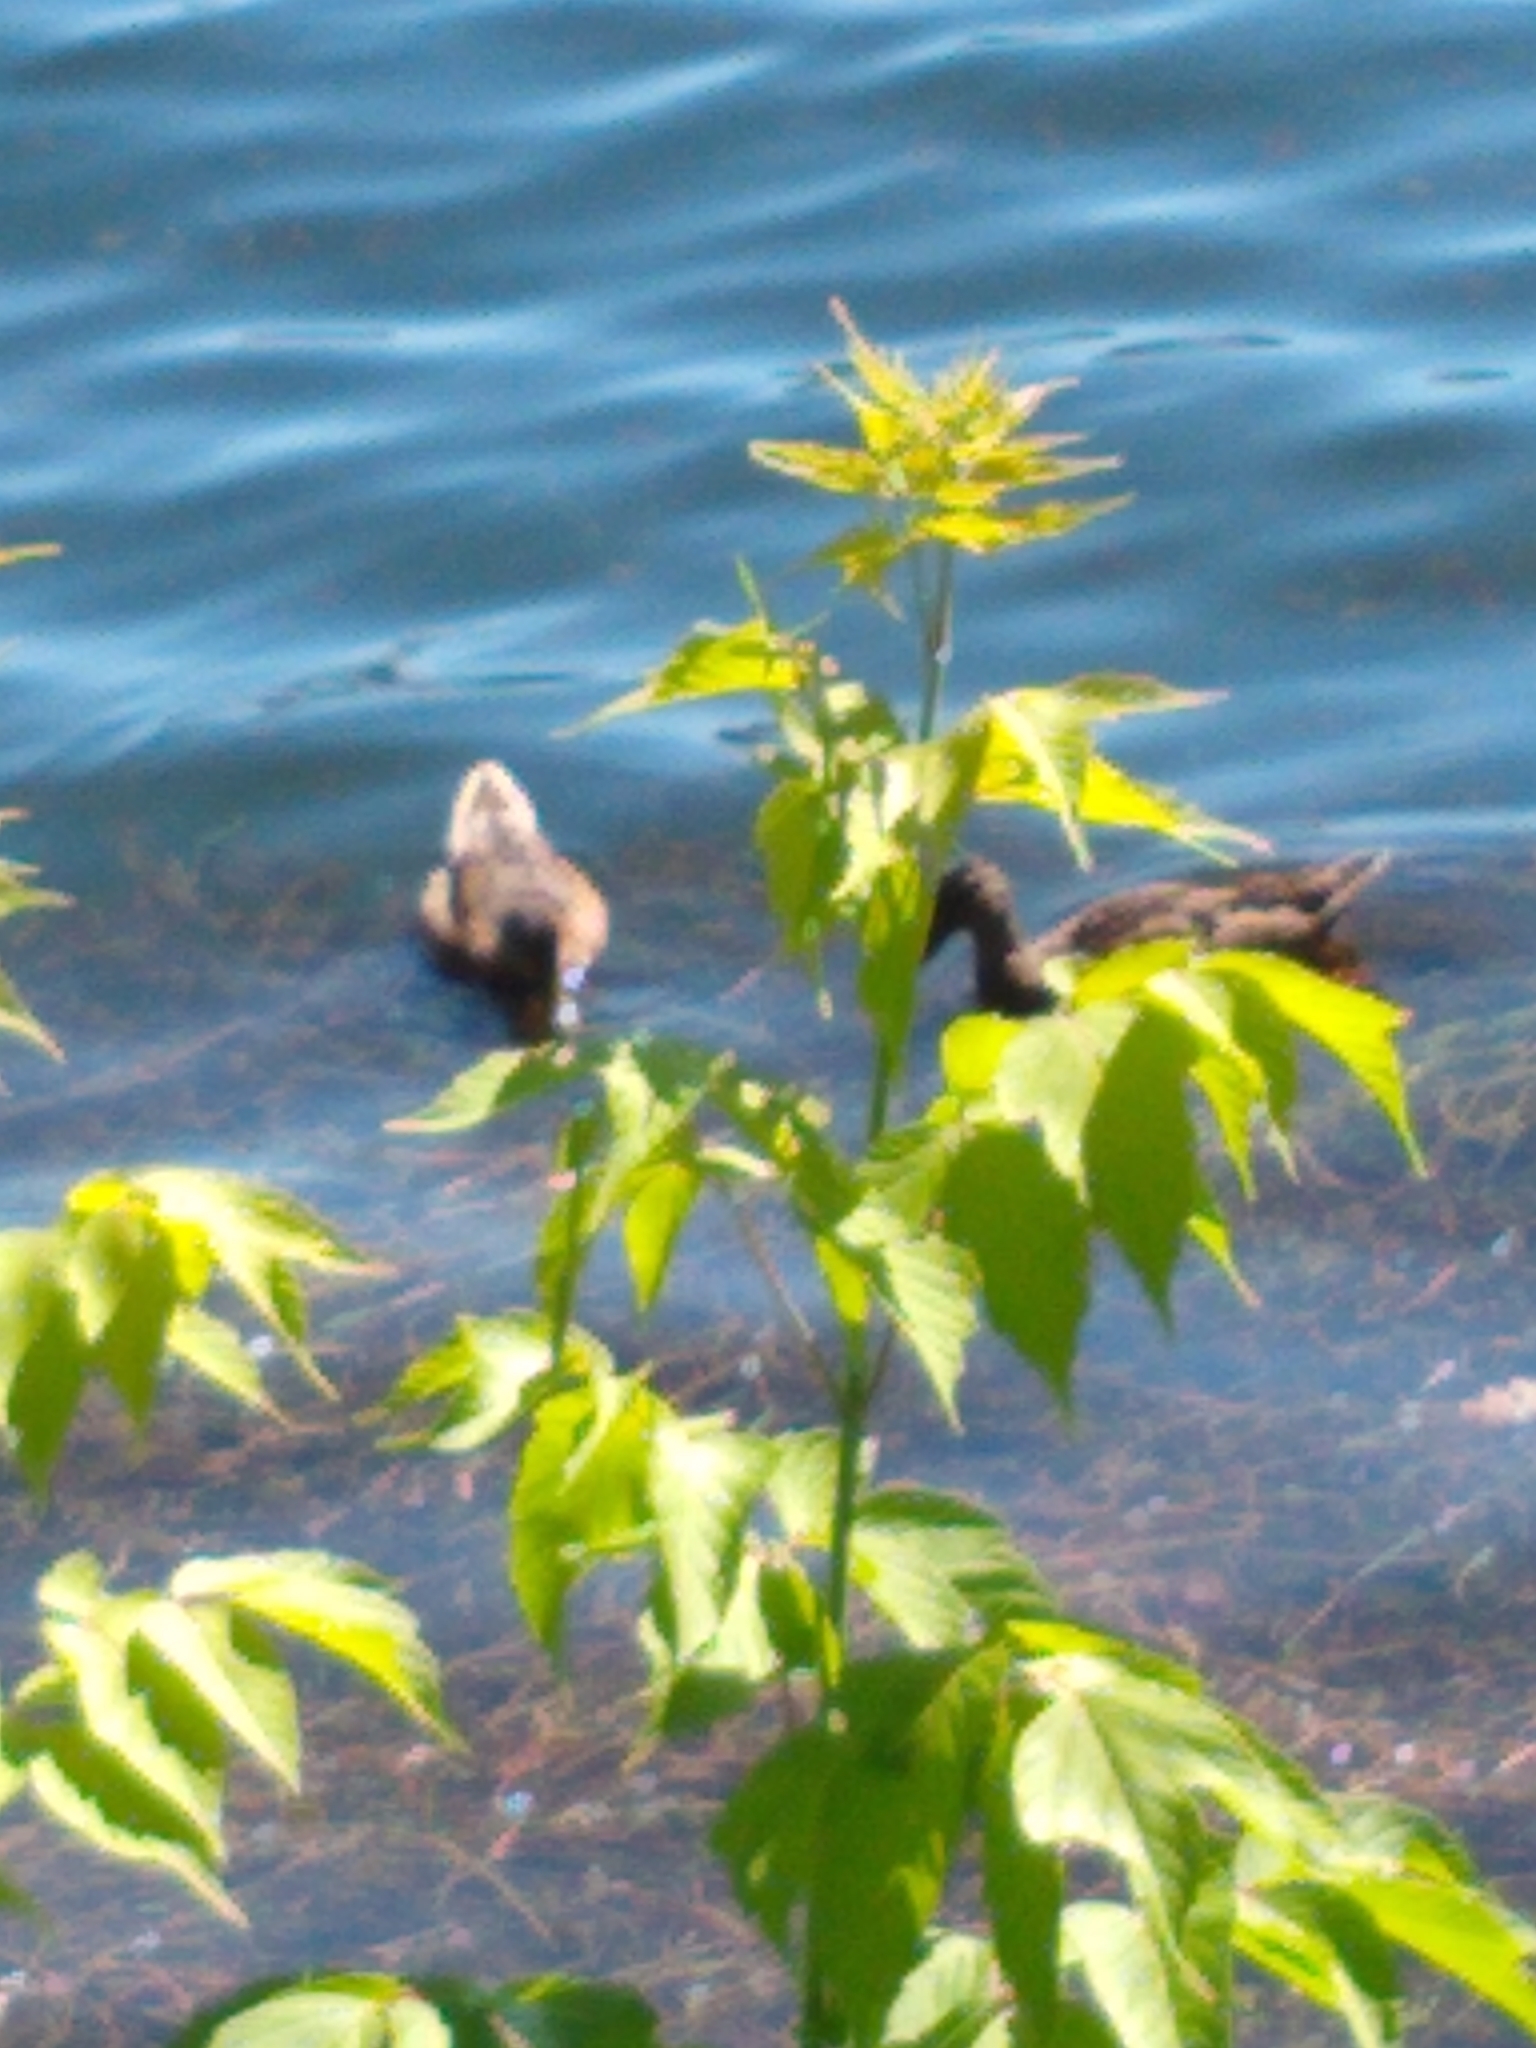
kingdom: Animalia
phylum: Chordata
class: Aves
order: Anseriformes
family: Anatidae
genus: Anas
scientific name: Anas platyrhynchos
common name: Mallard
